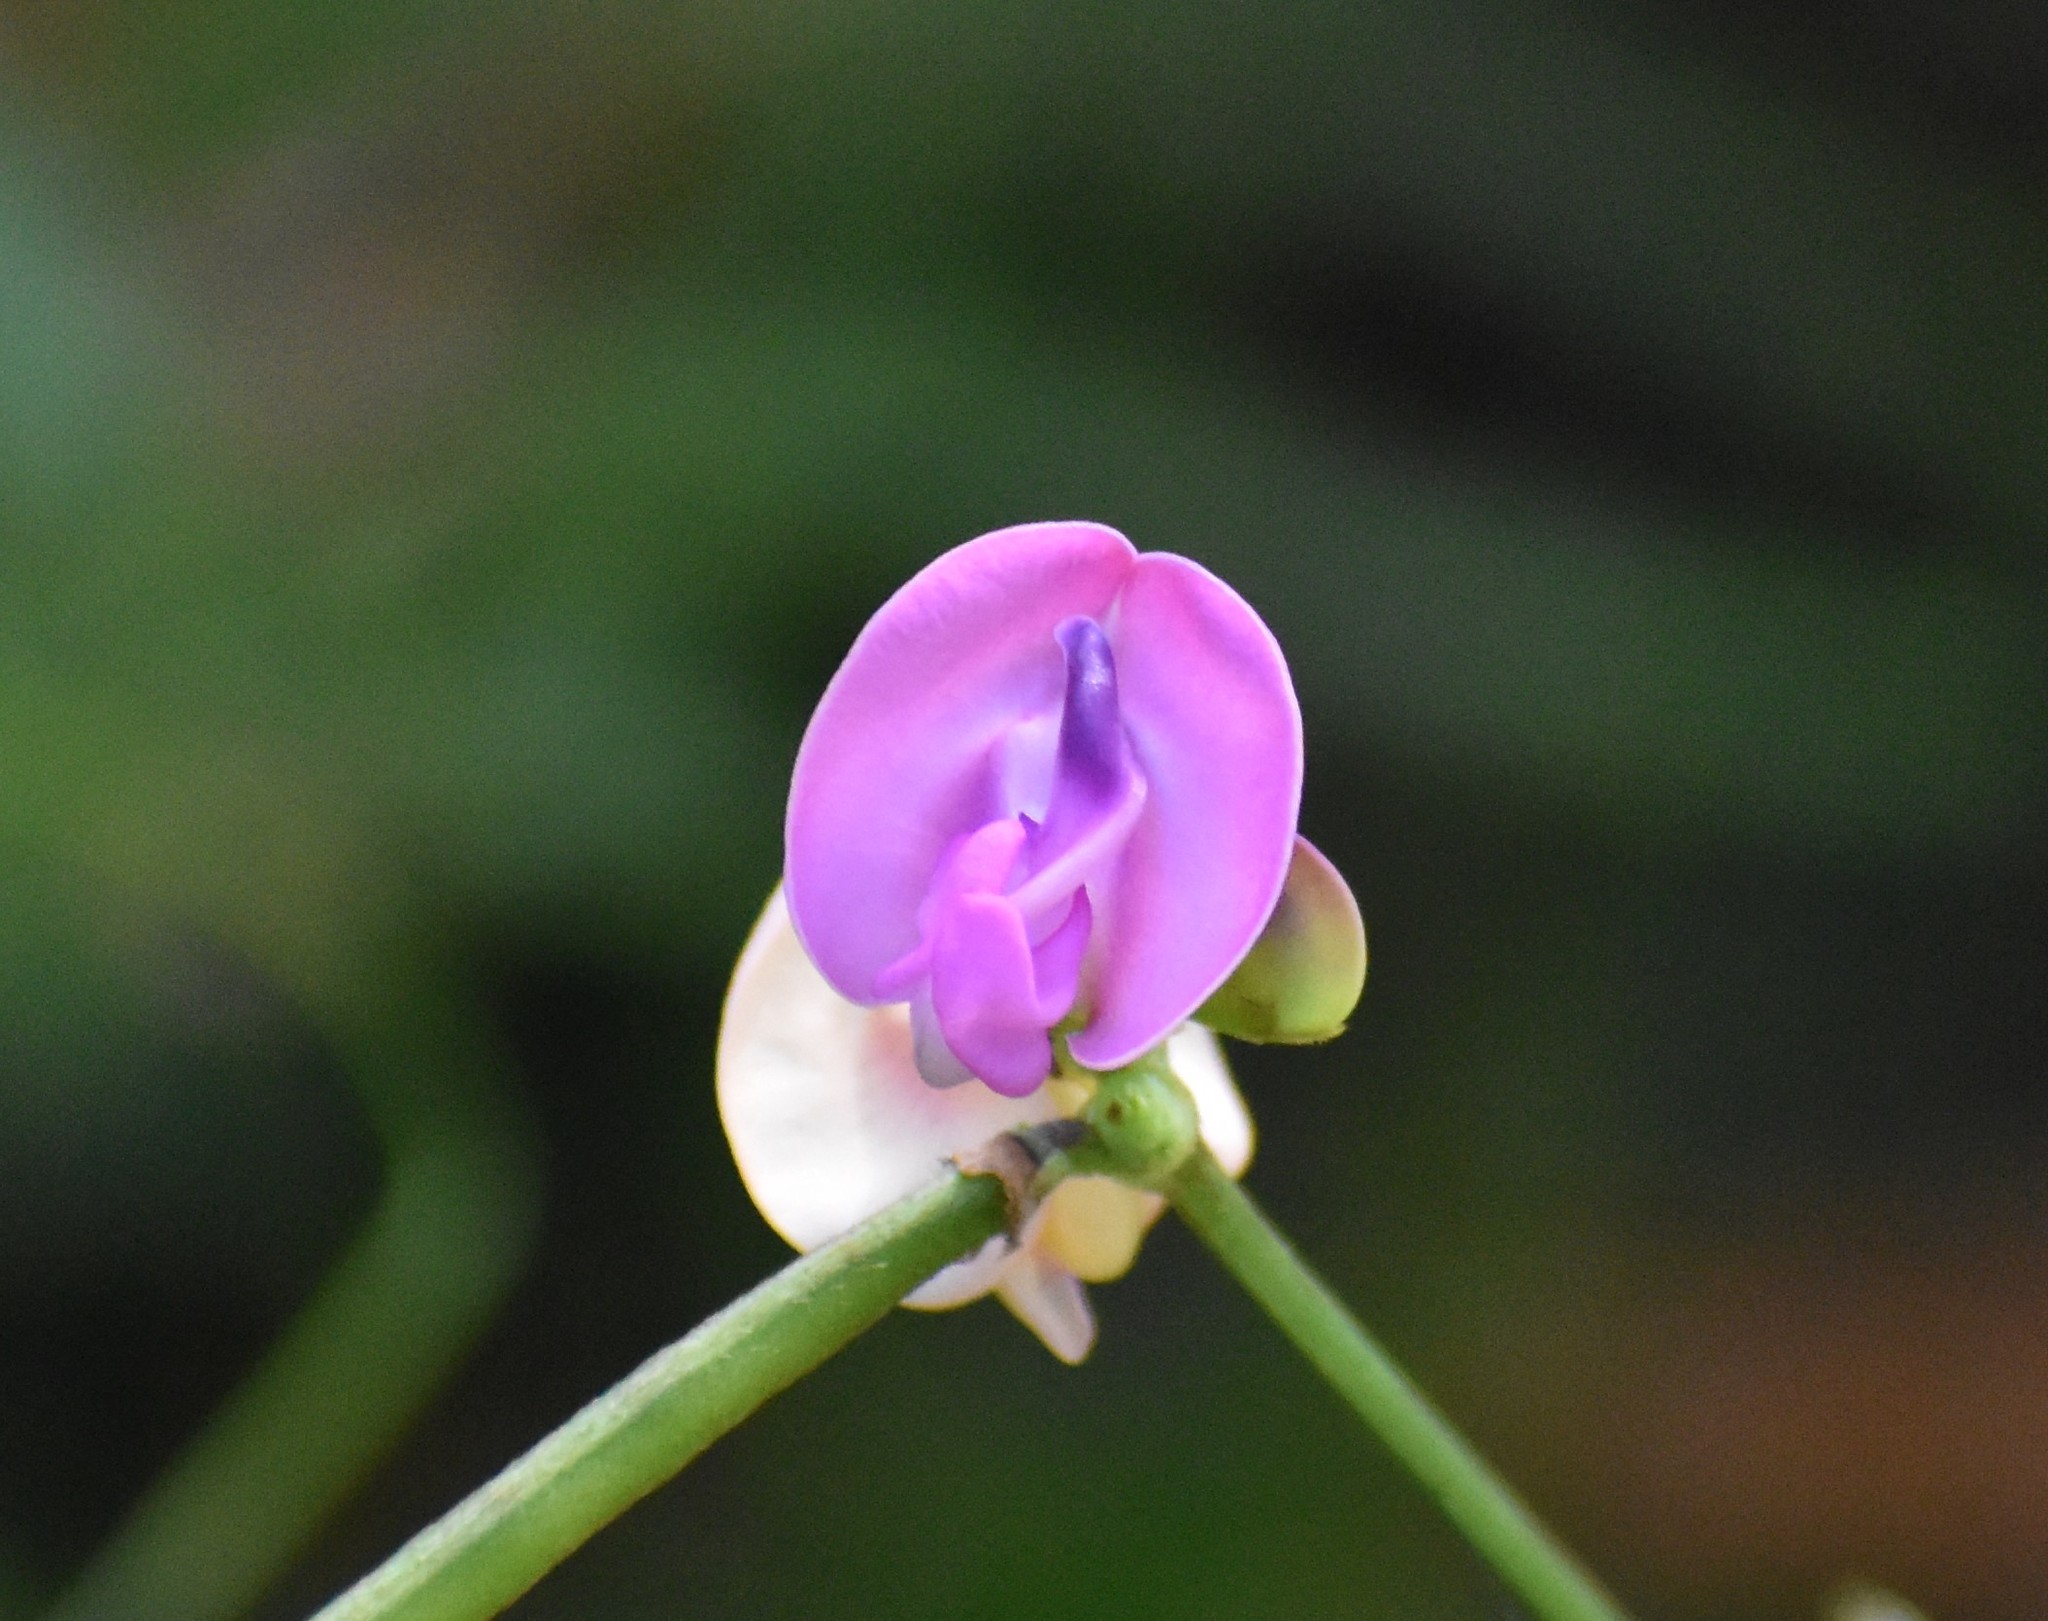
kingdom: Plantae
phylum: Tracheophyta
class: Magnoliopsida
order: Fabales
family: Fabaceae
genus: Strophostyles
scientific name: Strophostyles umbellata
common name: Perennial wild bean
